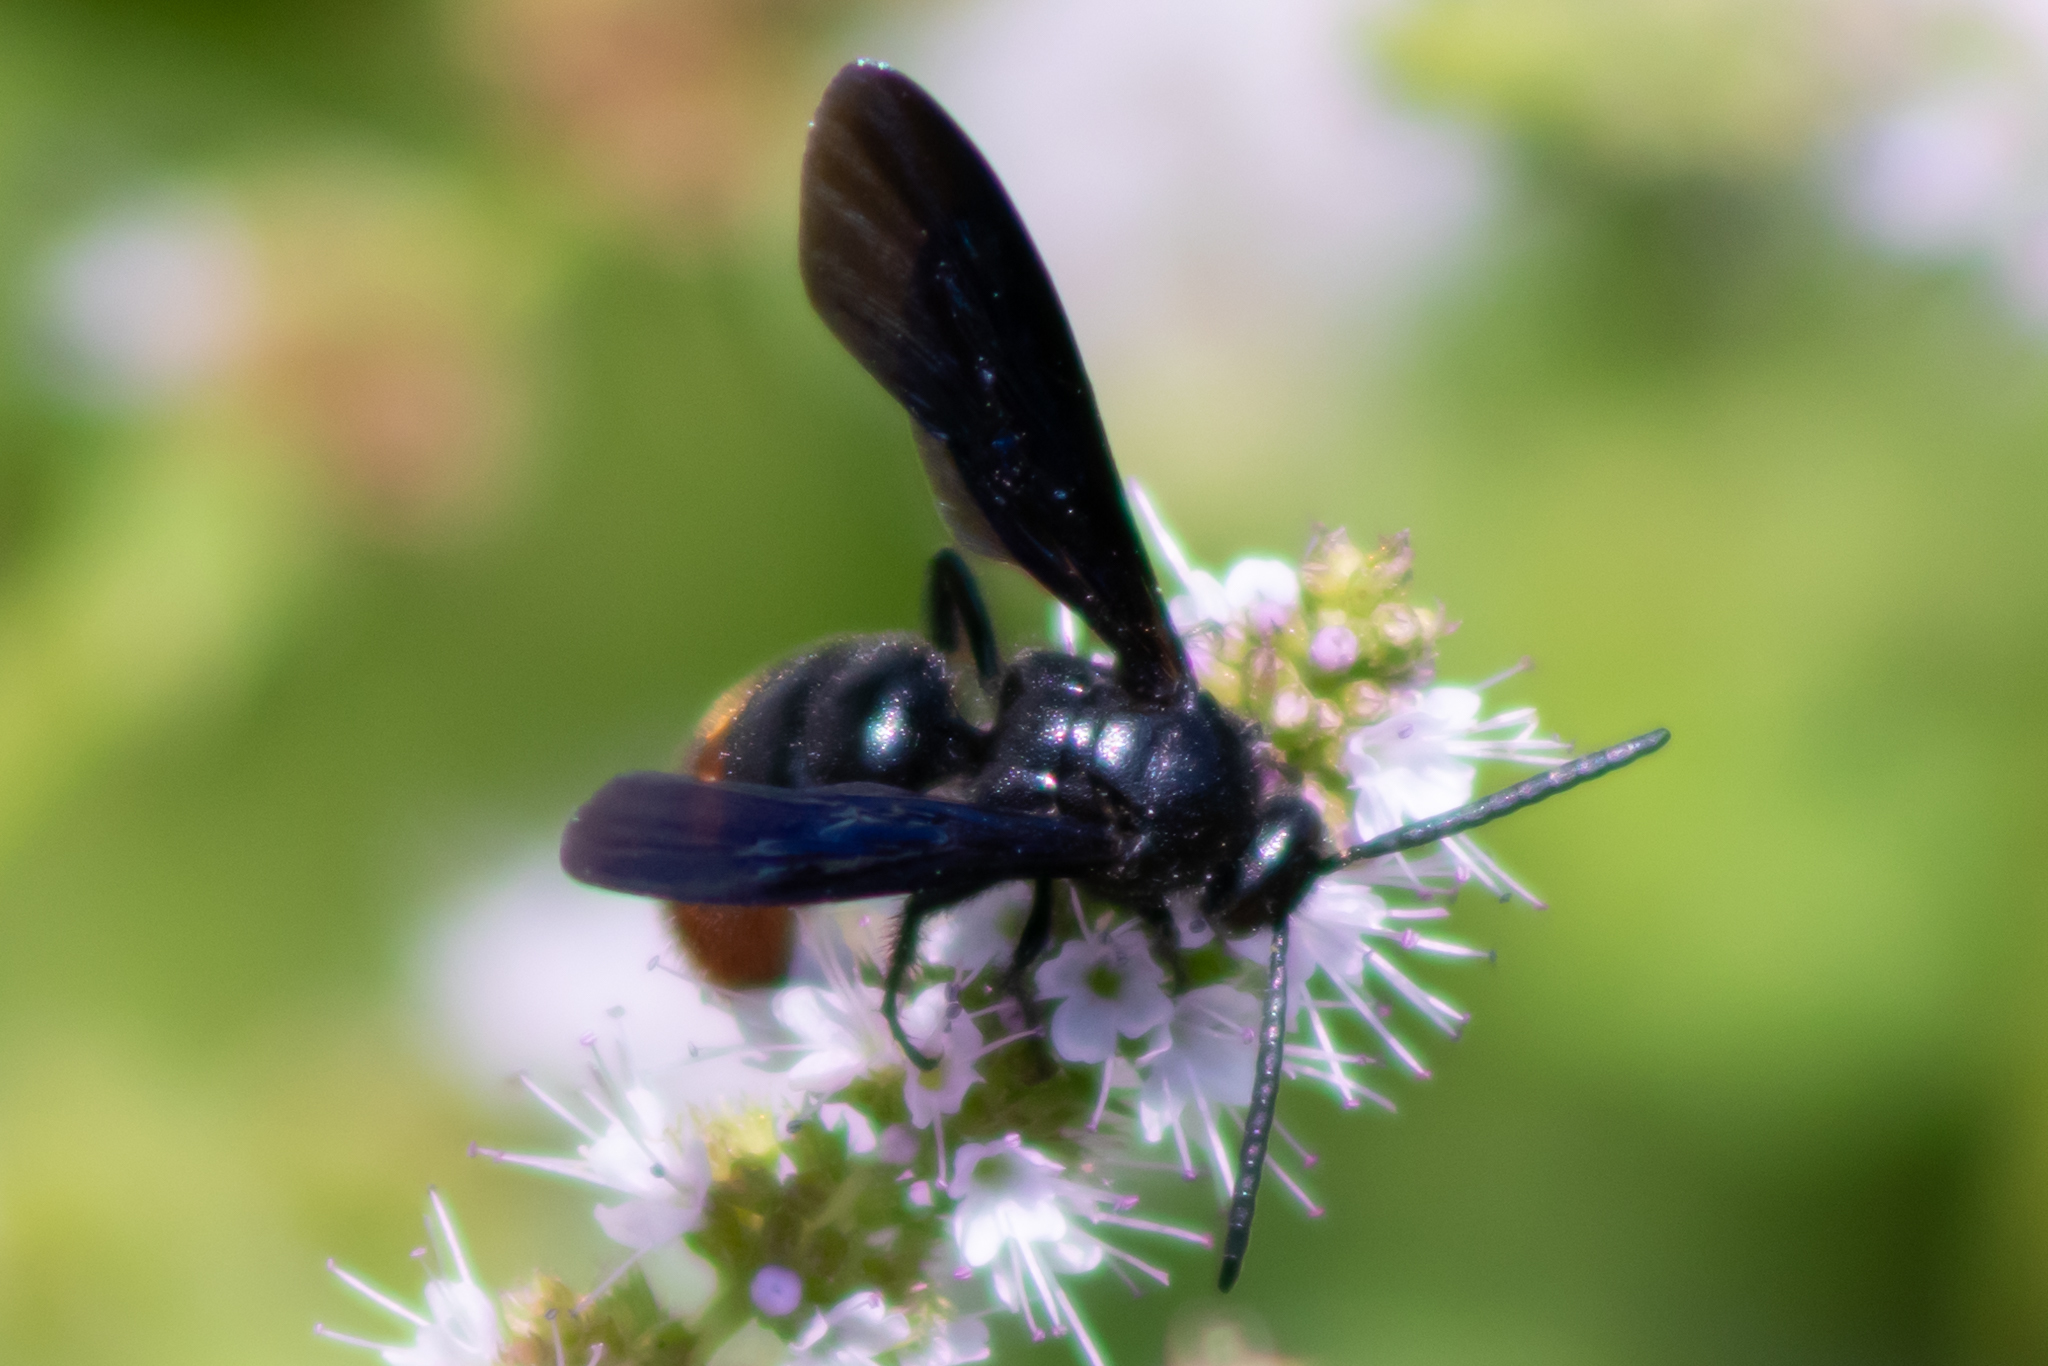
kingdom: Animalia
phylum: Arthropoda
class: Insecta
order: Hymenoptera
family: Scoliidae
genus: Scolia
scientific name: Scolia dubia
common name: Blue-winged scoliid wasp
